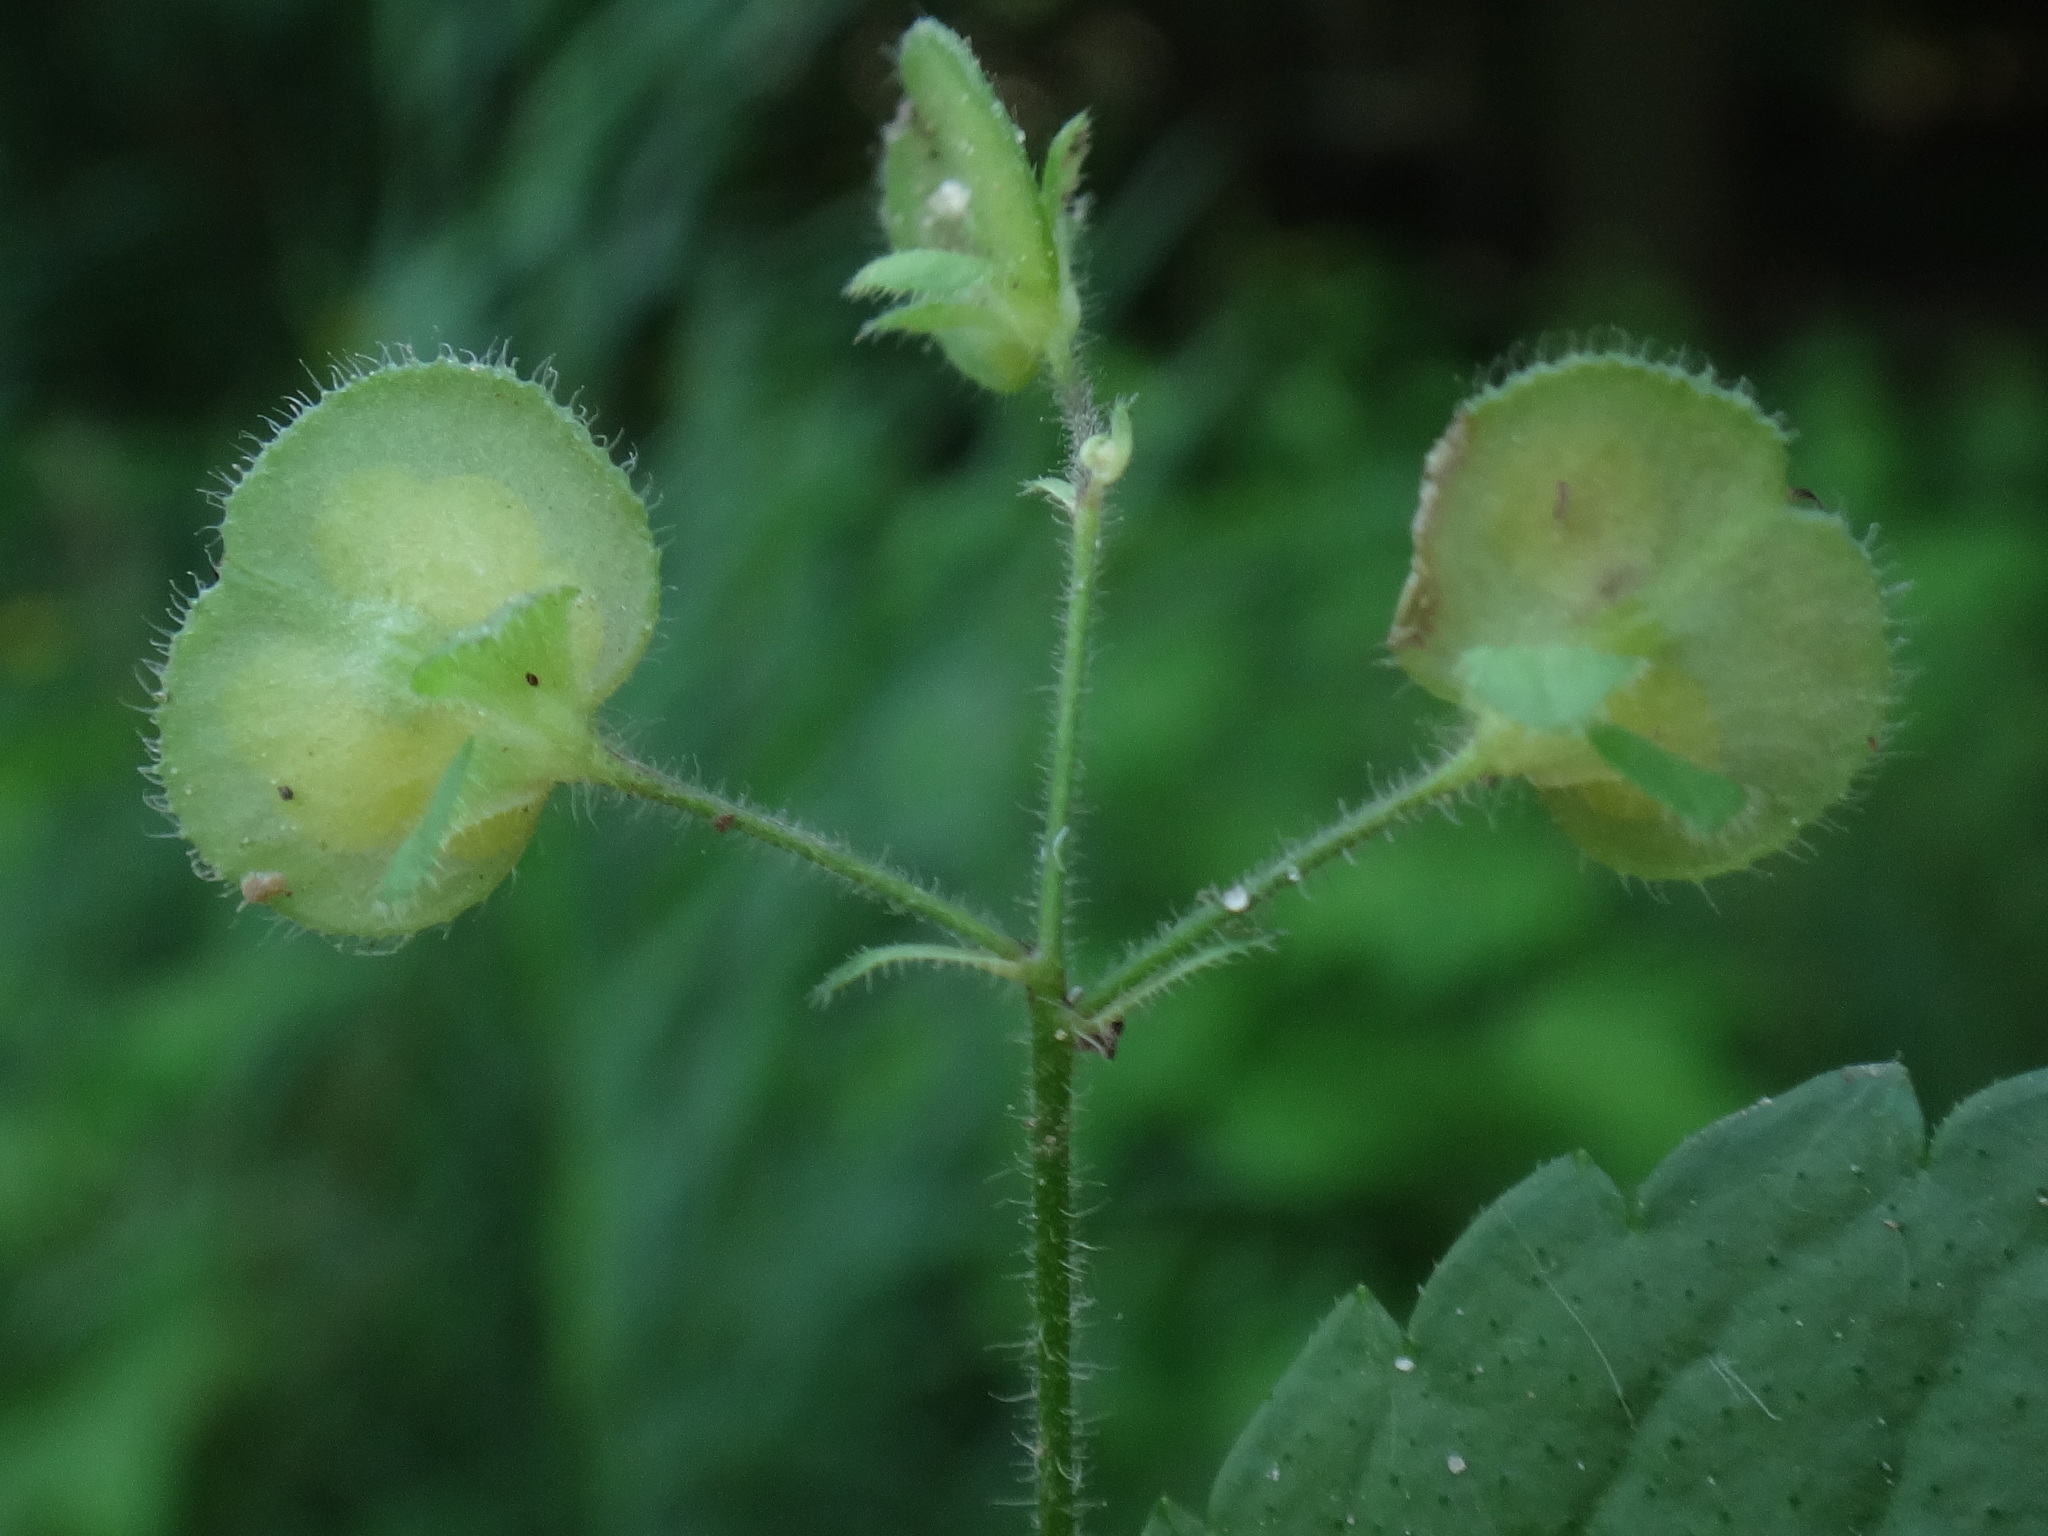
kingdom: Plantae
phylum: Tracheophyta
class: Magnoliopsida
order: Lamiales
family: Plantaginaceae
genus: Veronica
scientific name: Veronica montana
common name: Wood speedwell
